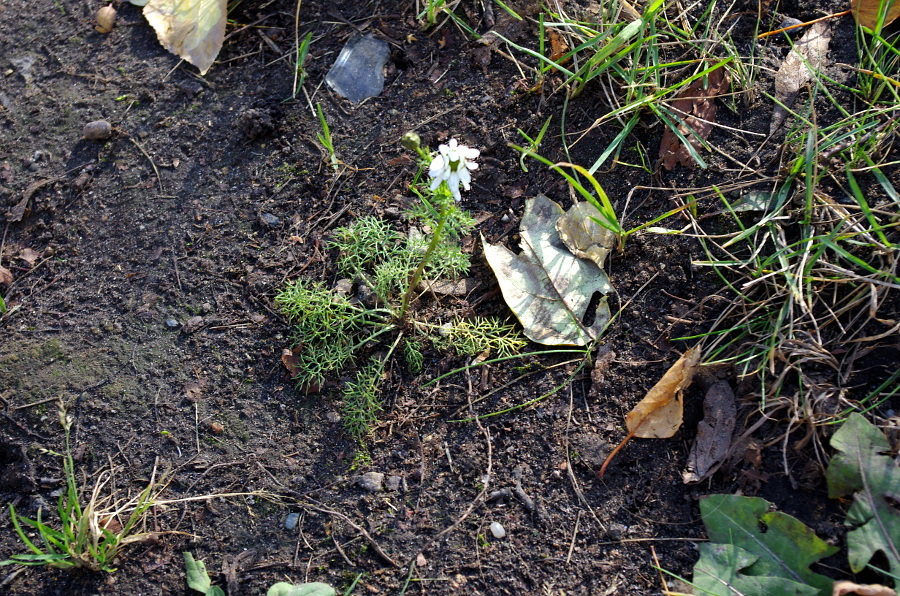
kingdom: Plantae
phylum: Tracheophyta
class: Magnoliopsida
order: Asterales
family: Asteraceae
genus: Tripleurospermum
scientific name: Tripleurospermum inodorum
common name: Scentless mayweed
